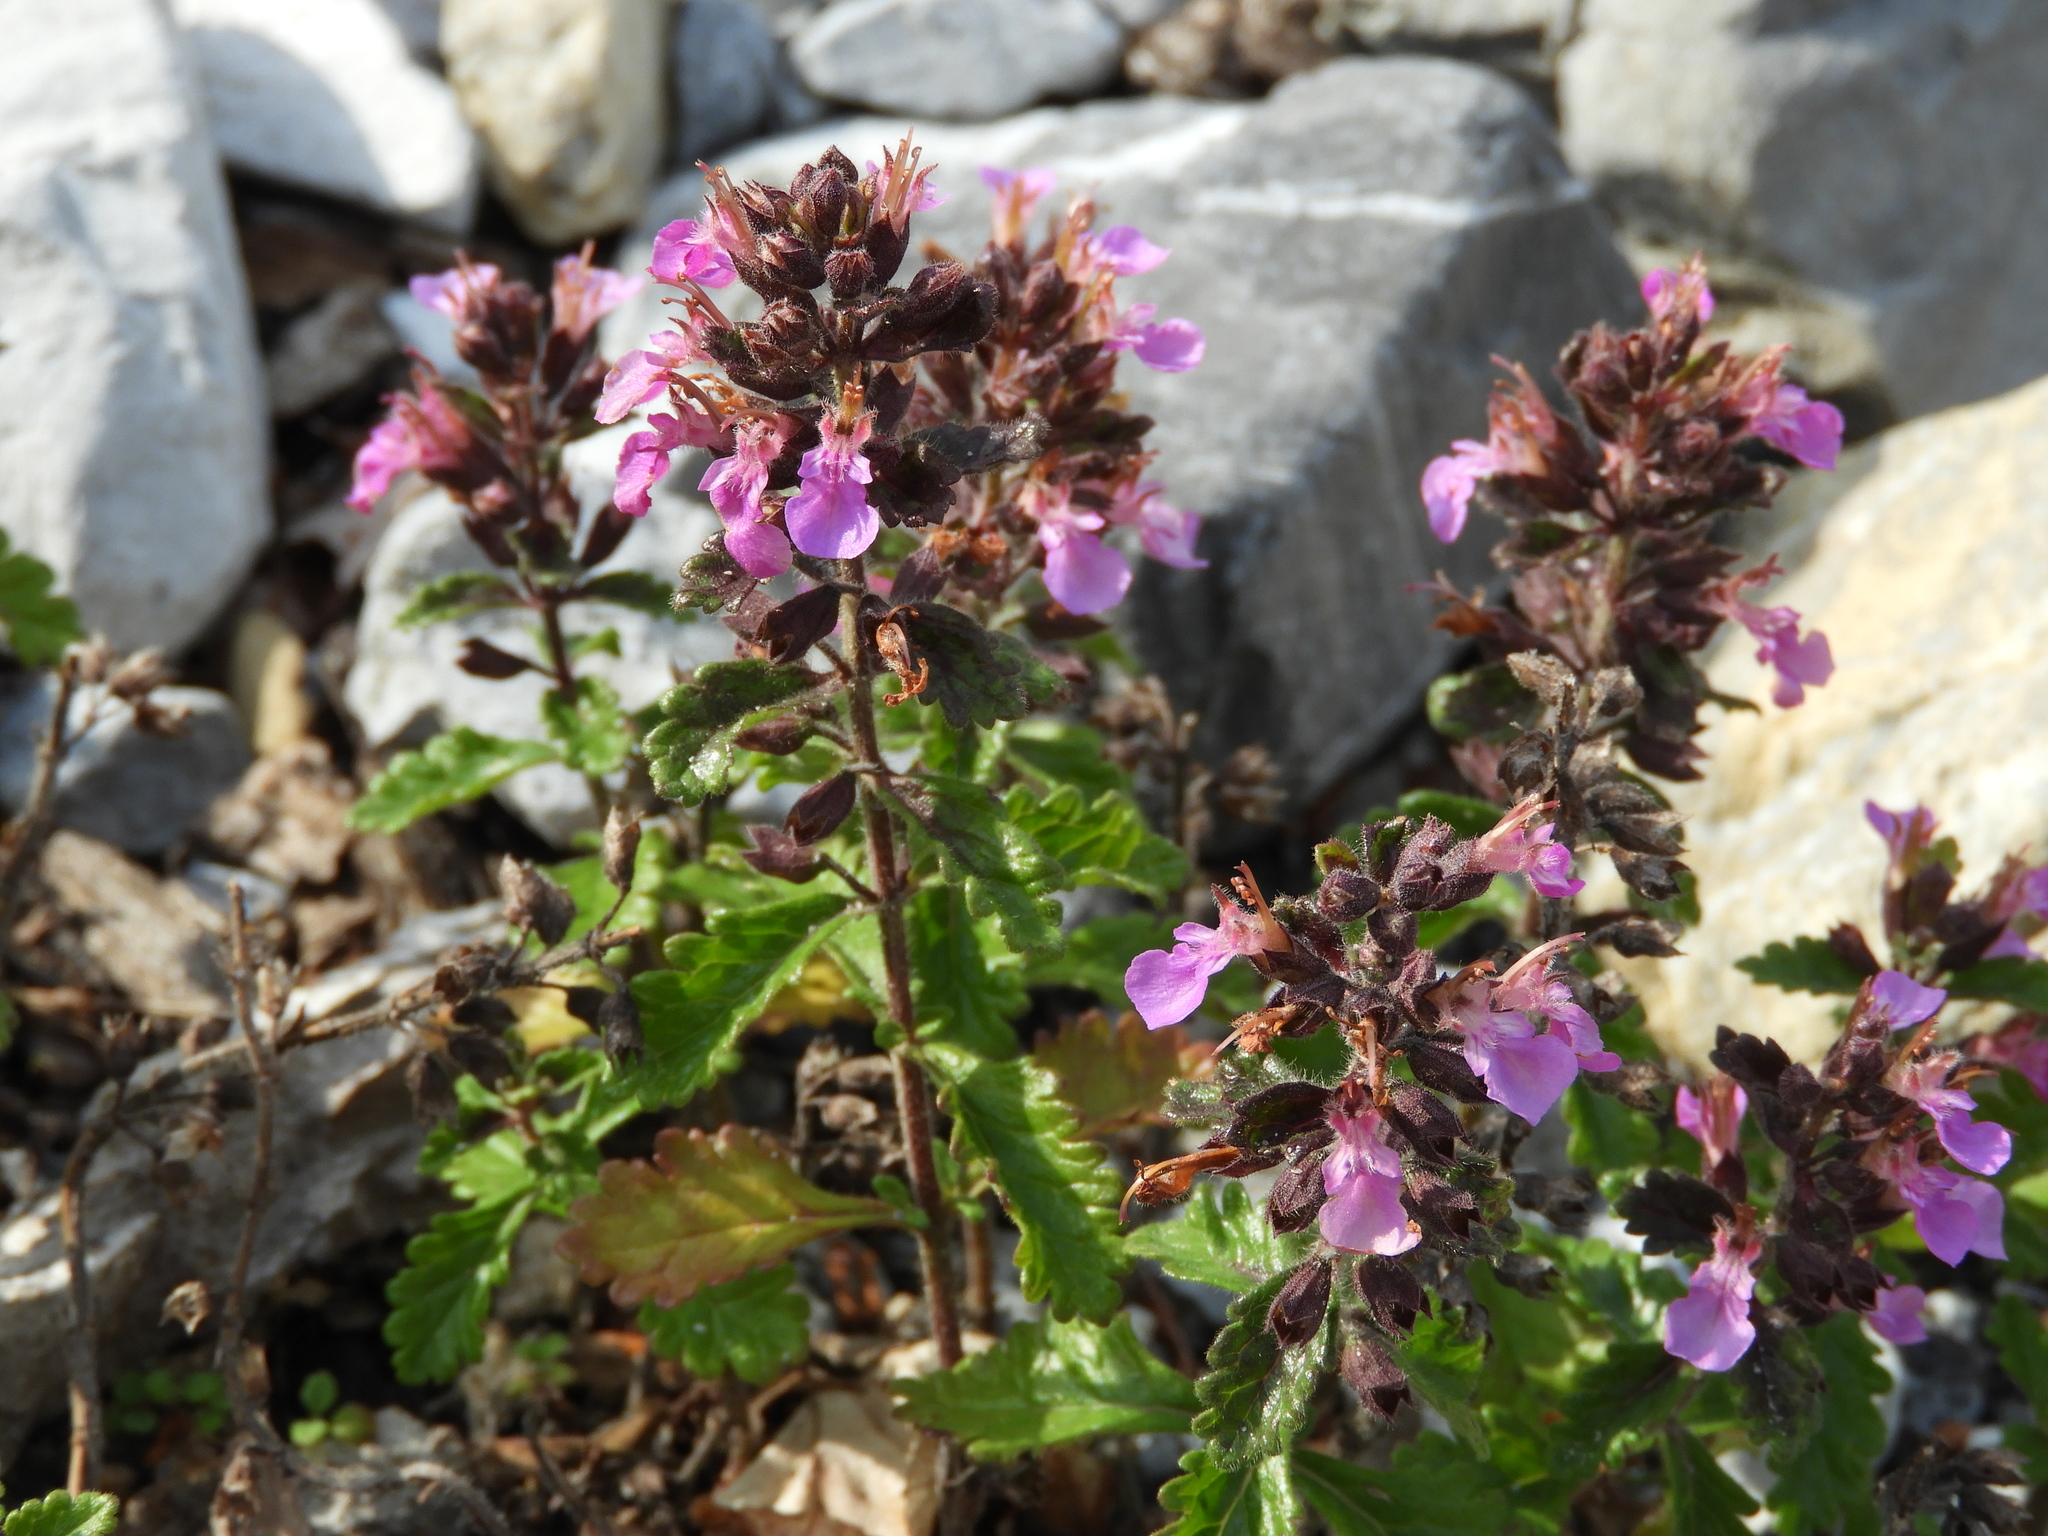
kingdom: Plantae
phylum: Tracheophyta
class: Magnoliopsida
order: Lamiales
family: Lamiaceae
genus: Teucrium
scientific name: Teucrium chamaedrys
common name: Wall germander
